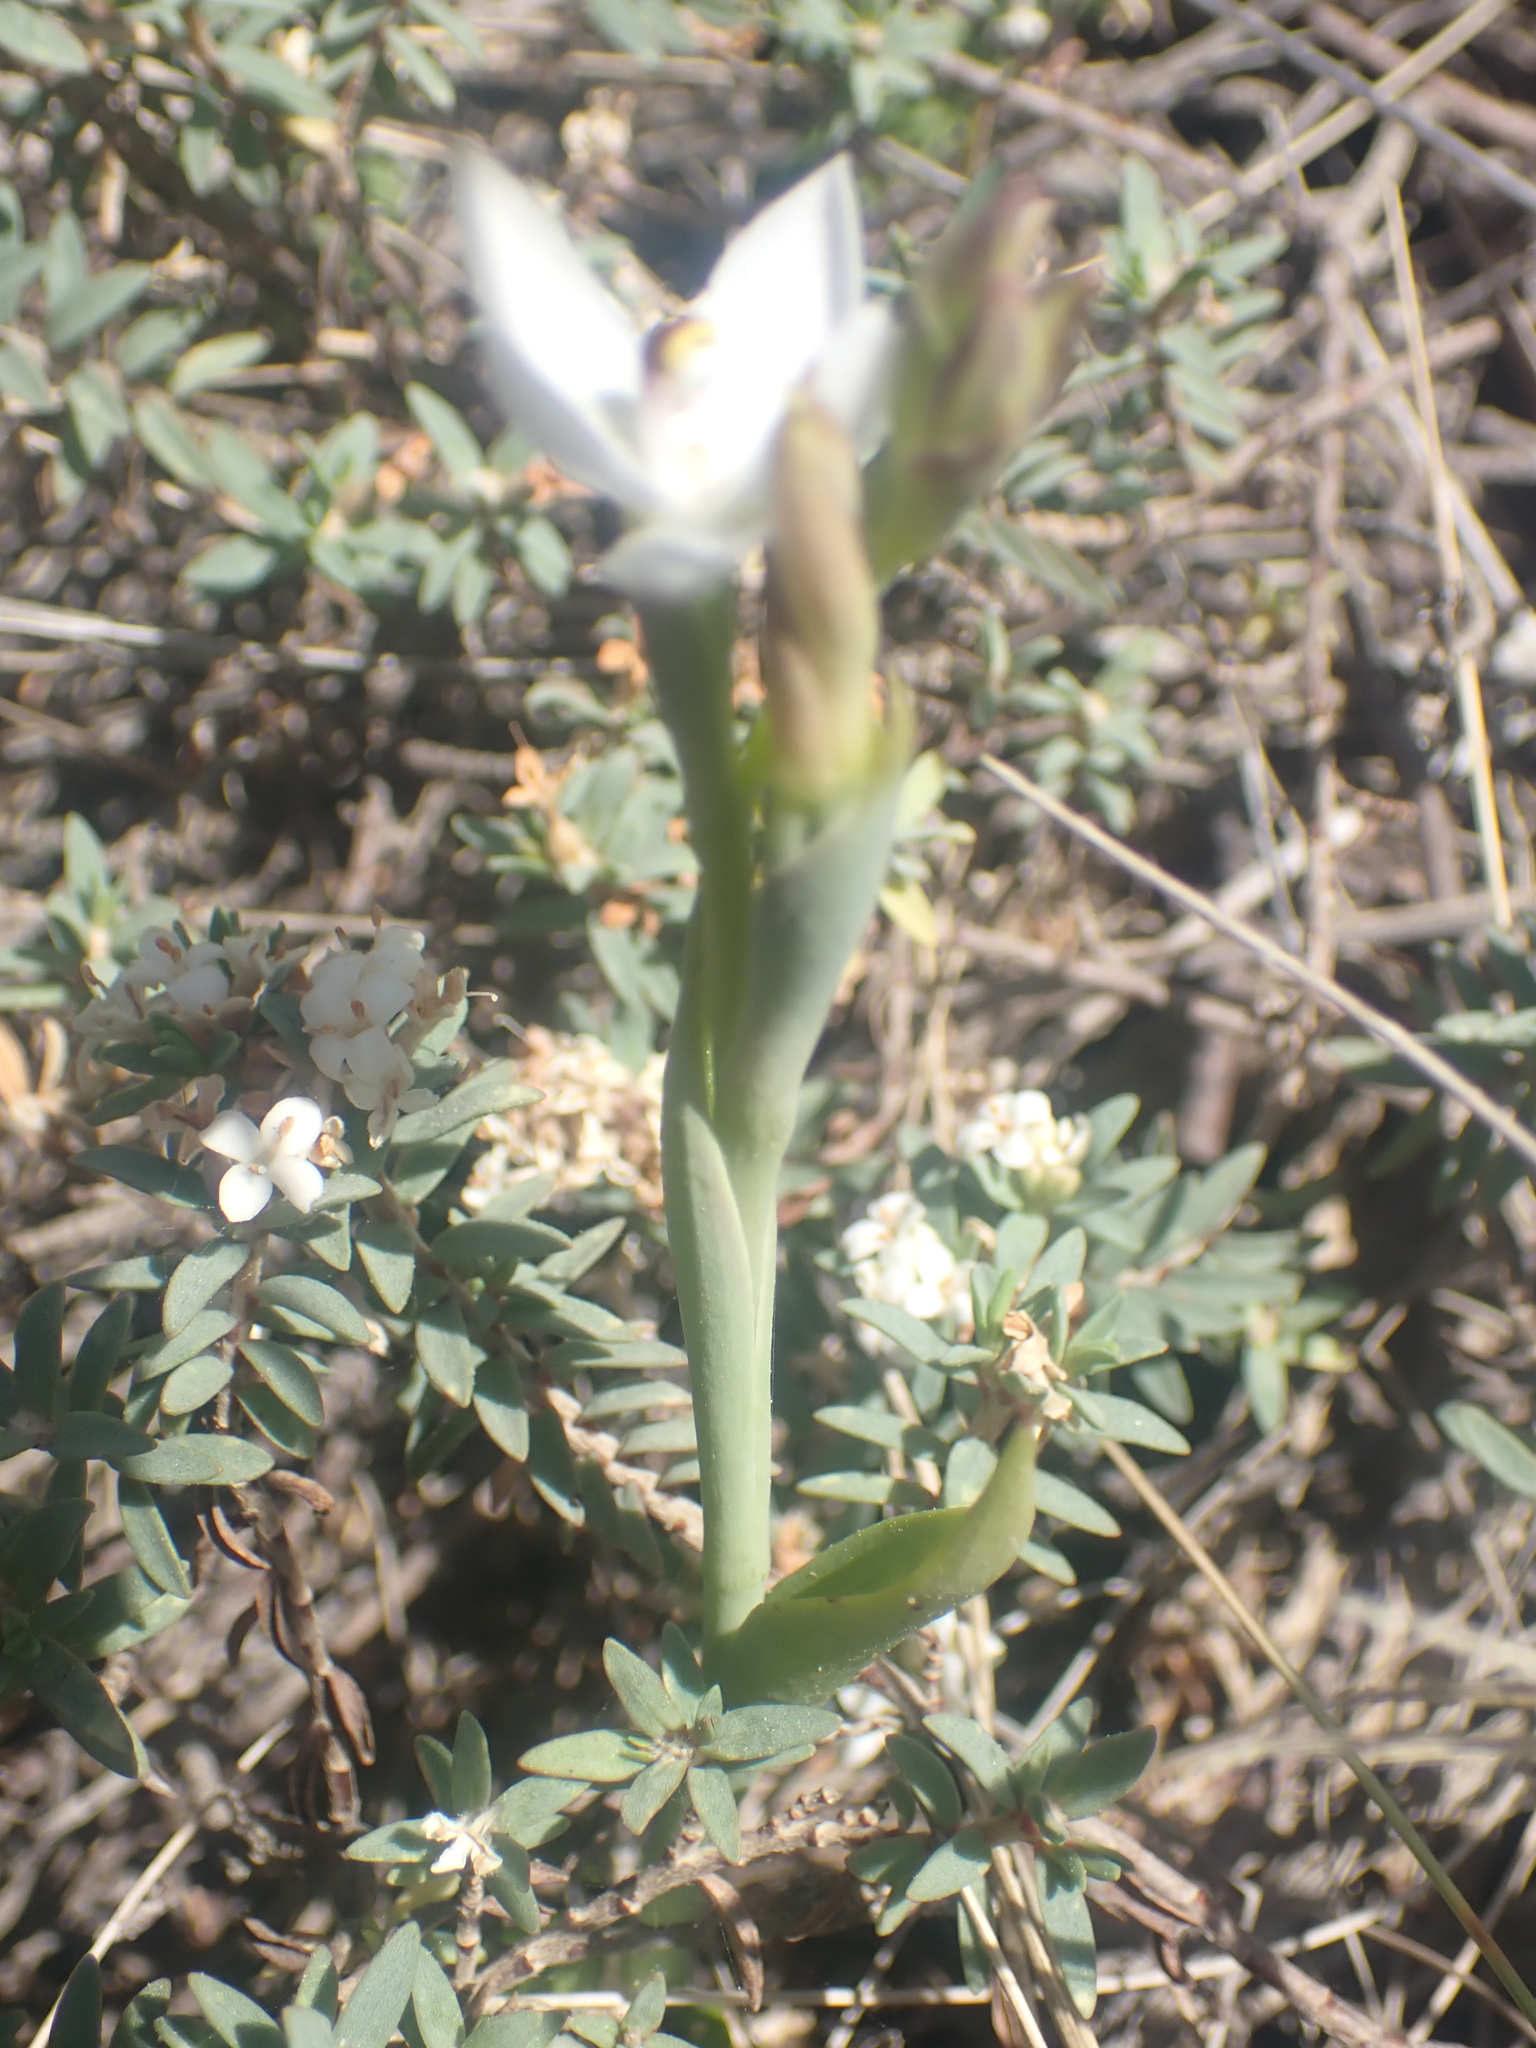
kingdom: Plantae
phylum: Tracheophyta
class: Liliopsida
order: Asparagales
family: Orchidaceae
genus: Thelymitra
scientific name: Thelymitra longifolia
